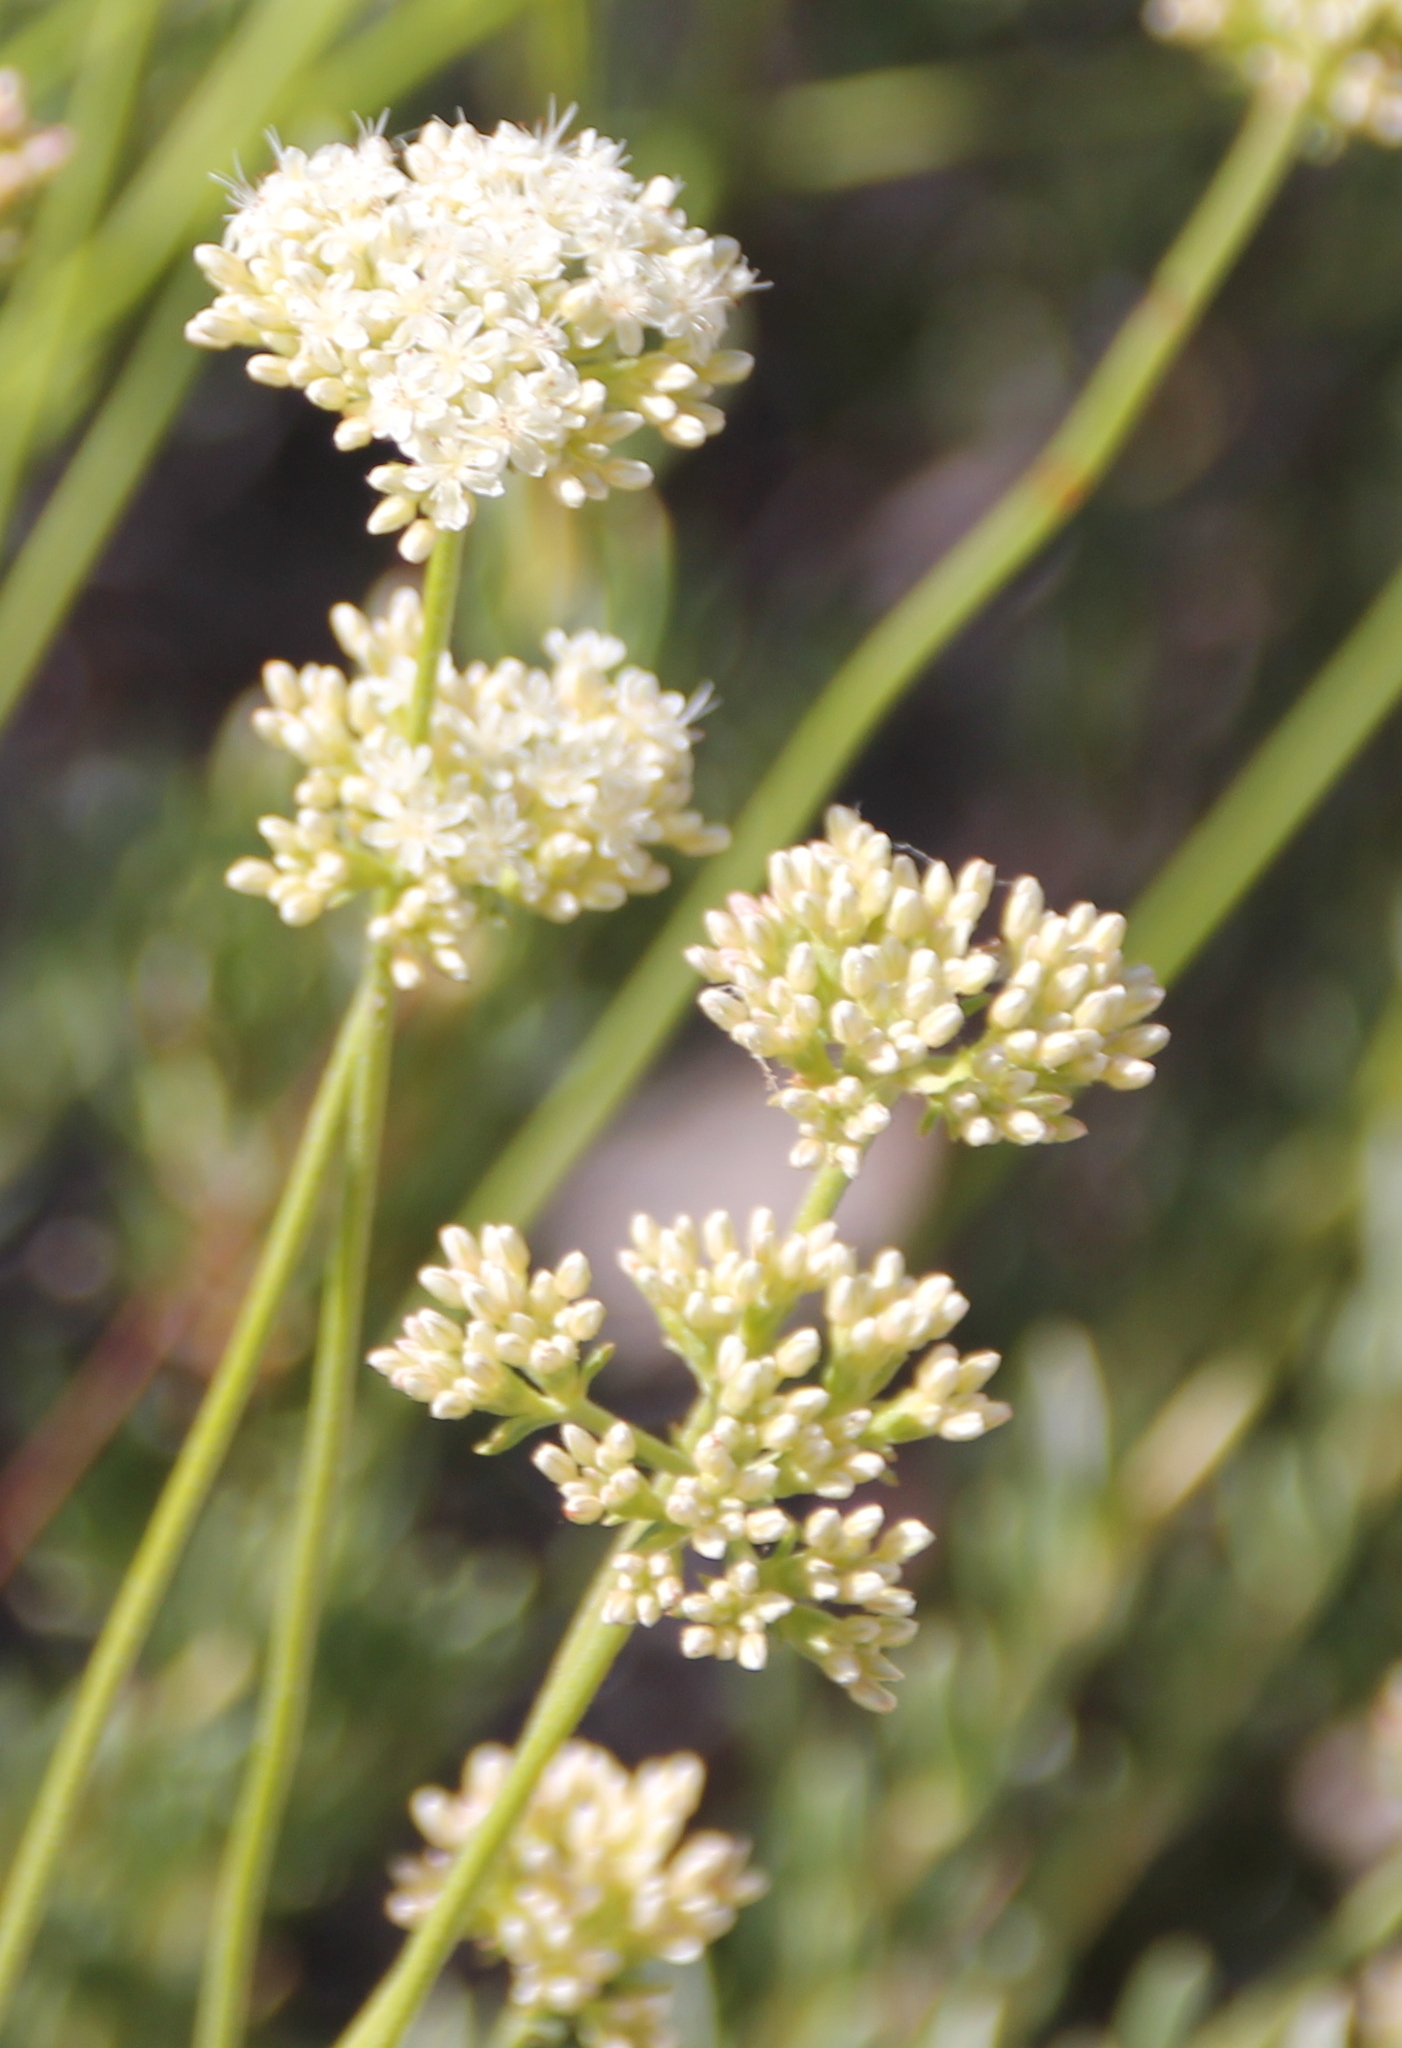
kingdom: Plantae
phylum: Tracheophyta
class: Magnoliopsida
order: Caryophyllales
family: Polygonaceae
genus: Eriogonum
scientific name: Eriogonum fasciculatum
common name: California wild buckwheat
